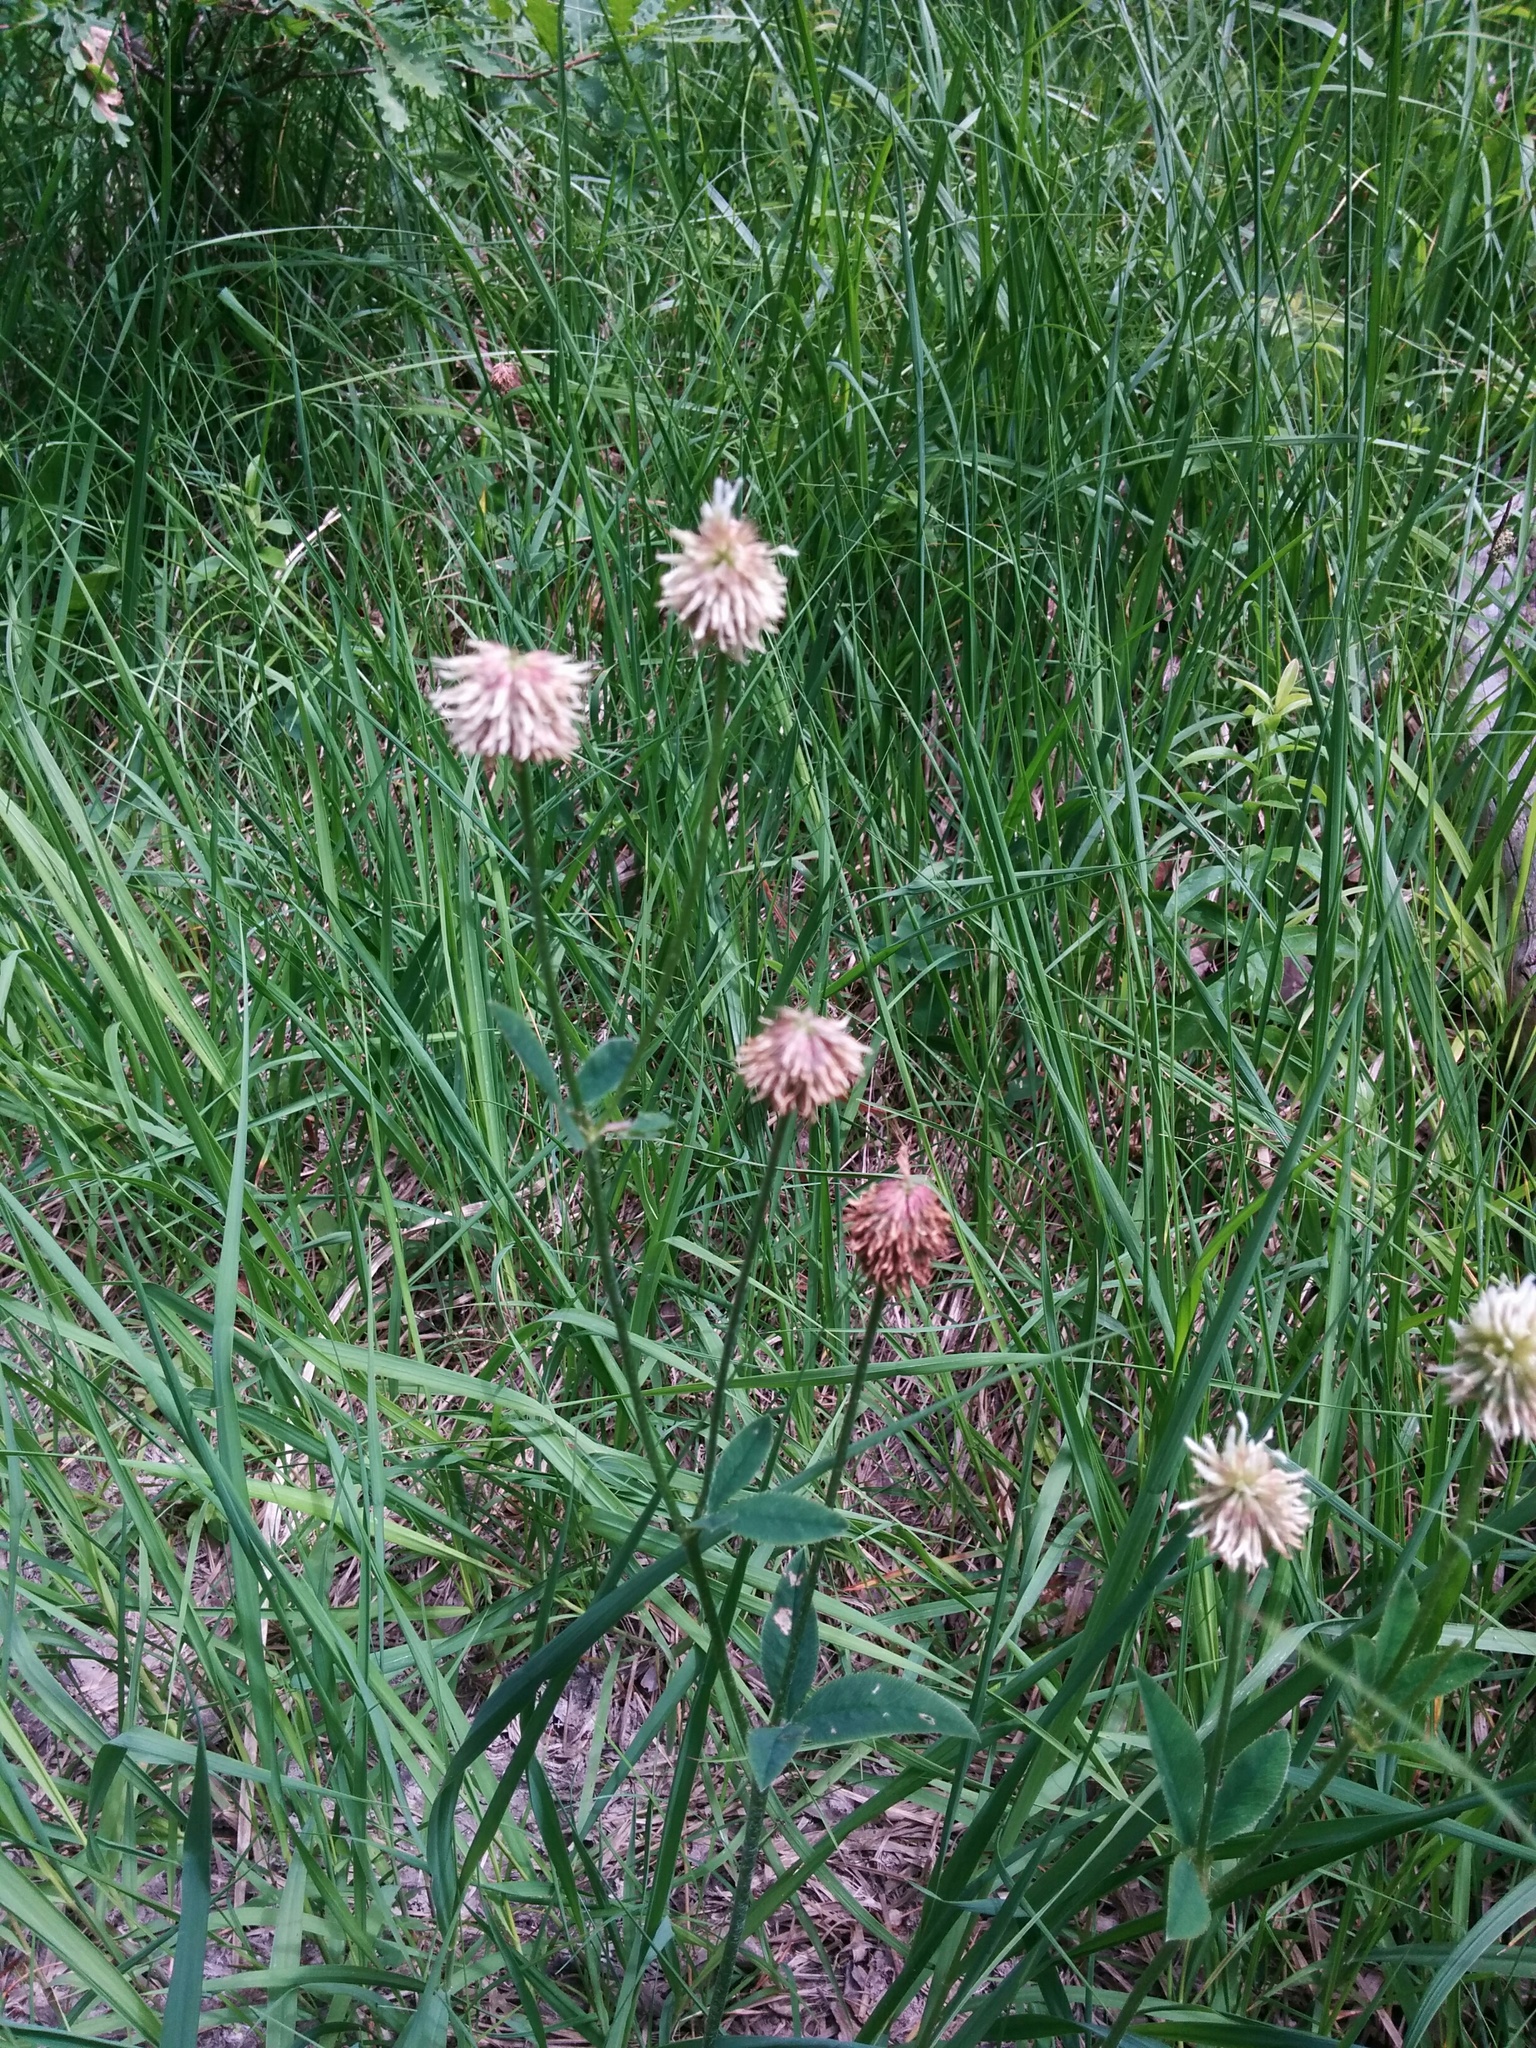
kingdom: Plantae
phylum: Tracheophyta
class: Magnoliopsida
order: Fabales
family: Fabaceae
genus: Trifolium
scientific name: Trifolium montanum
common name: Mountain clover
